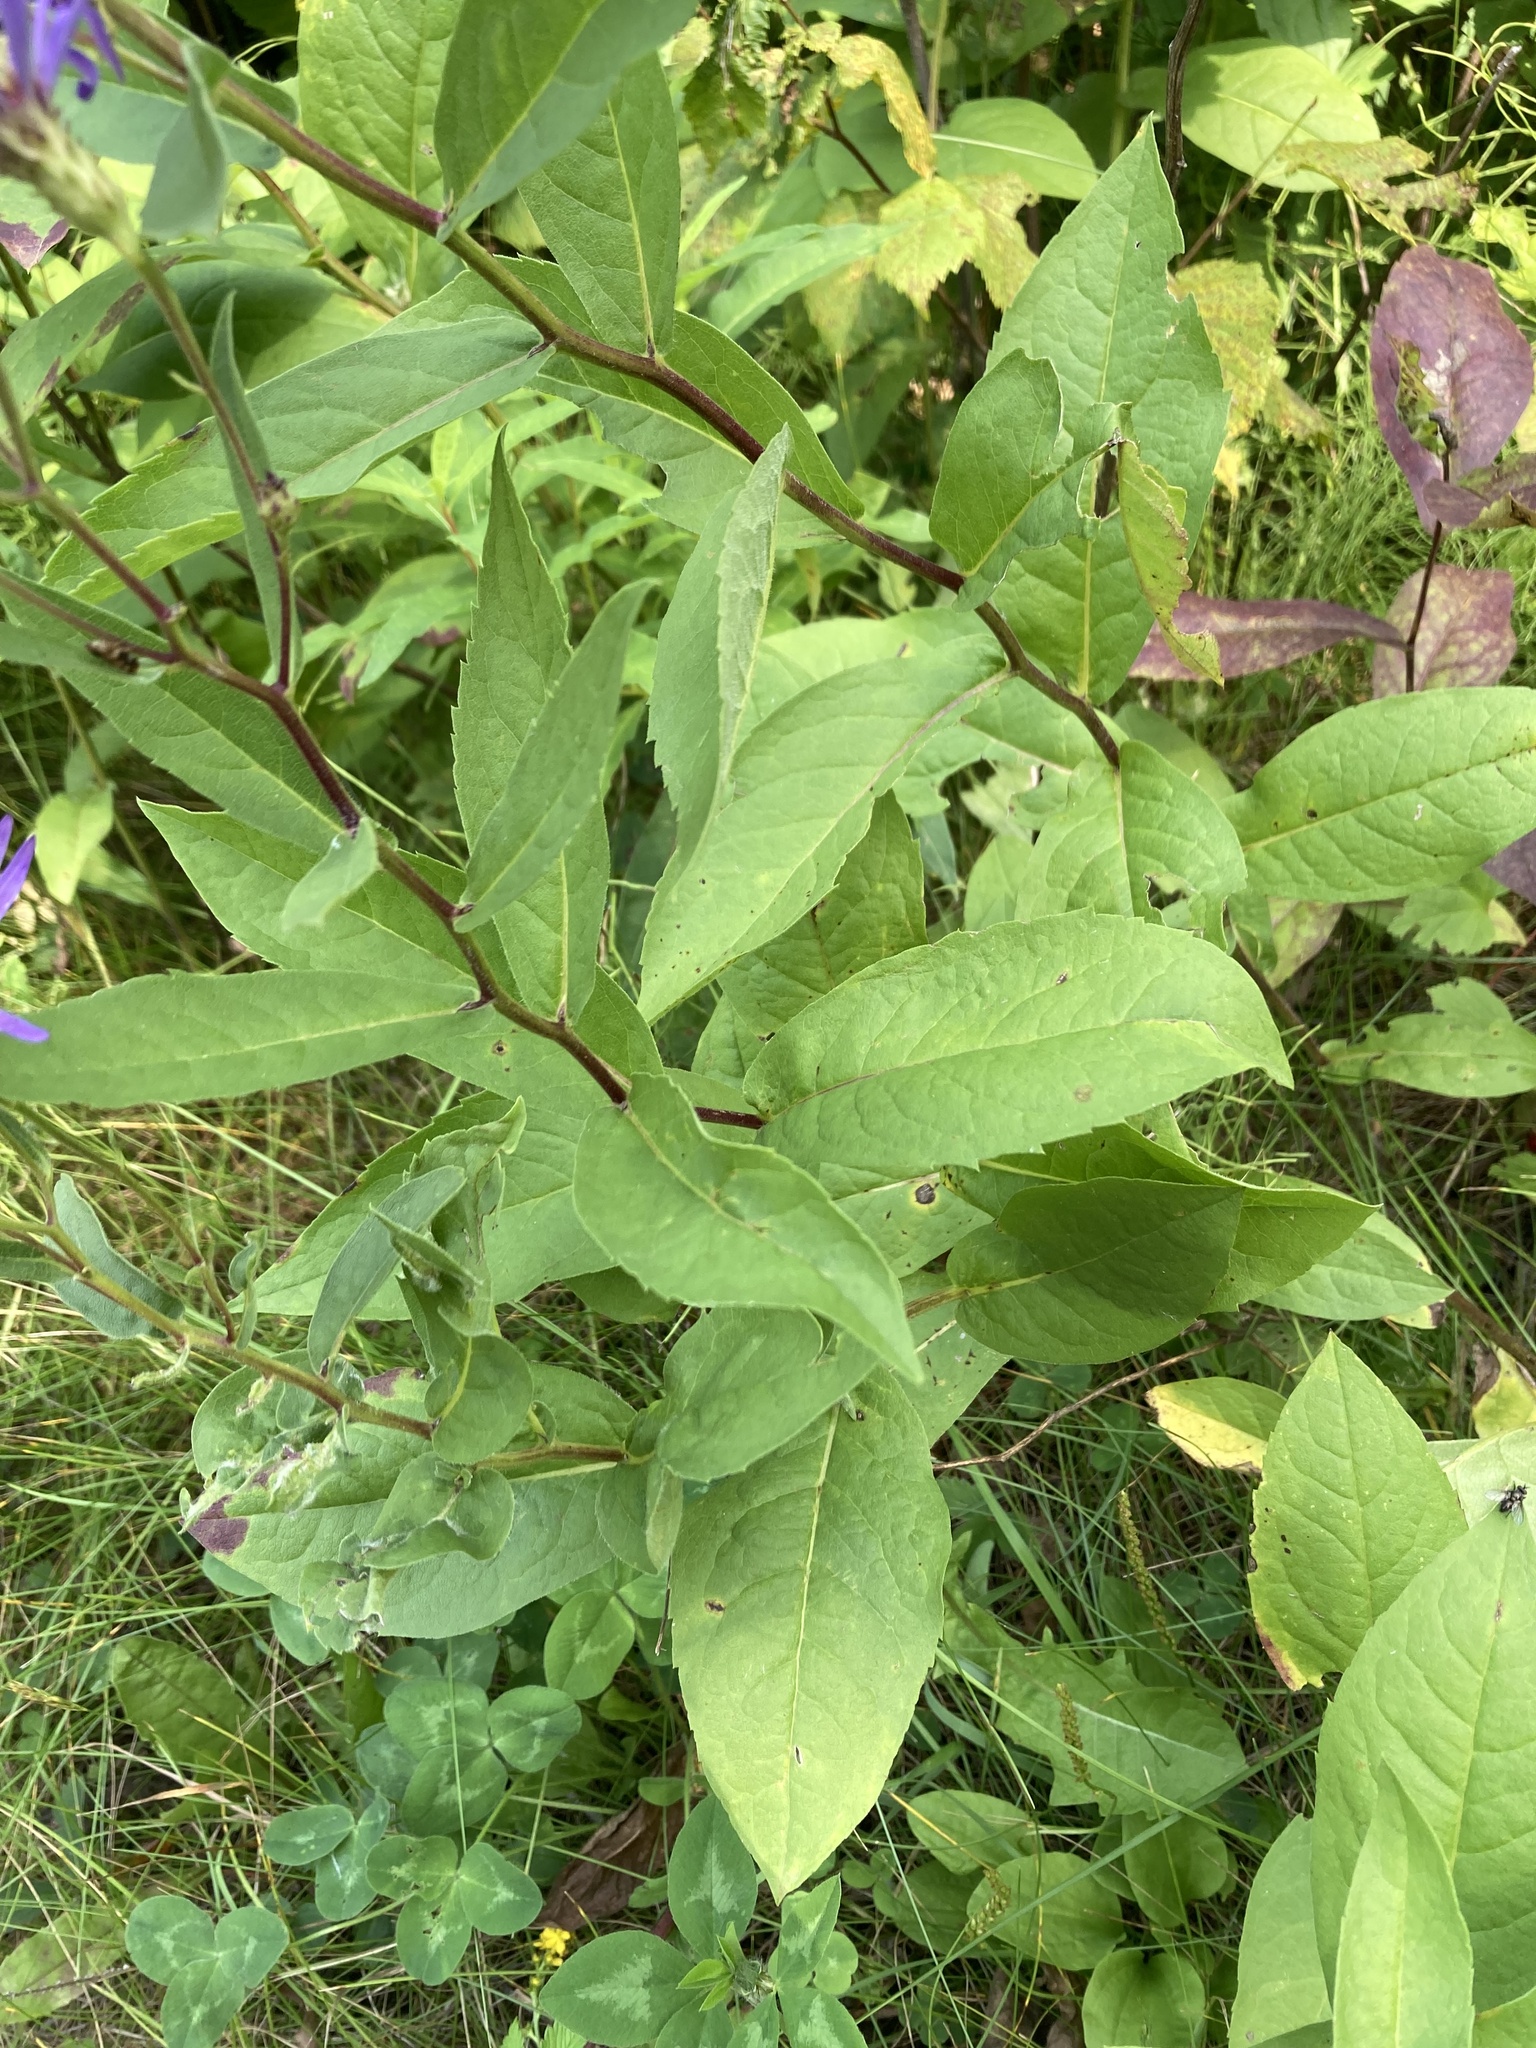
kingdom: Plantae
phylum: Tracheophyta
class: Magnoliopsida
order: Asterales
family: Asteraceae
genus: Eurybia
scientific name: Eurybia conspicua
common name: Showy aster
